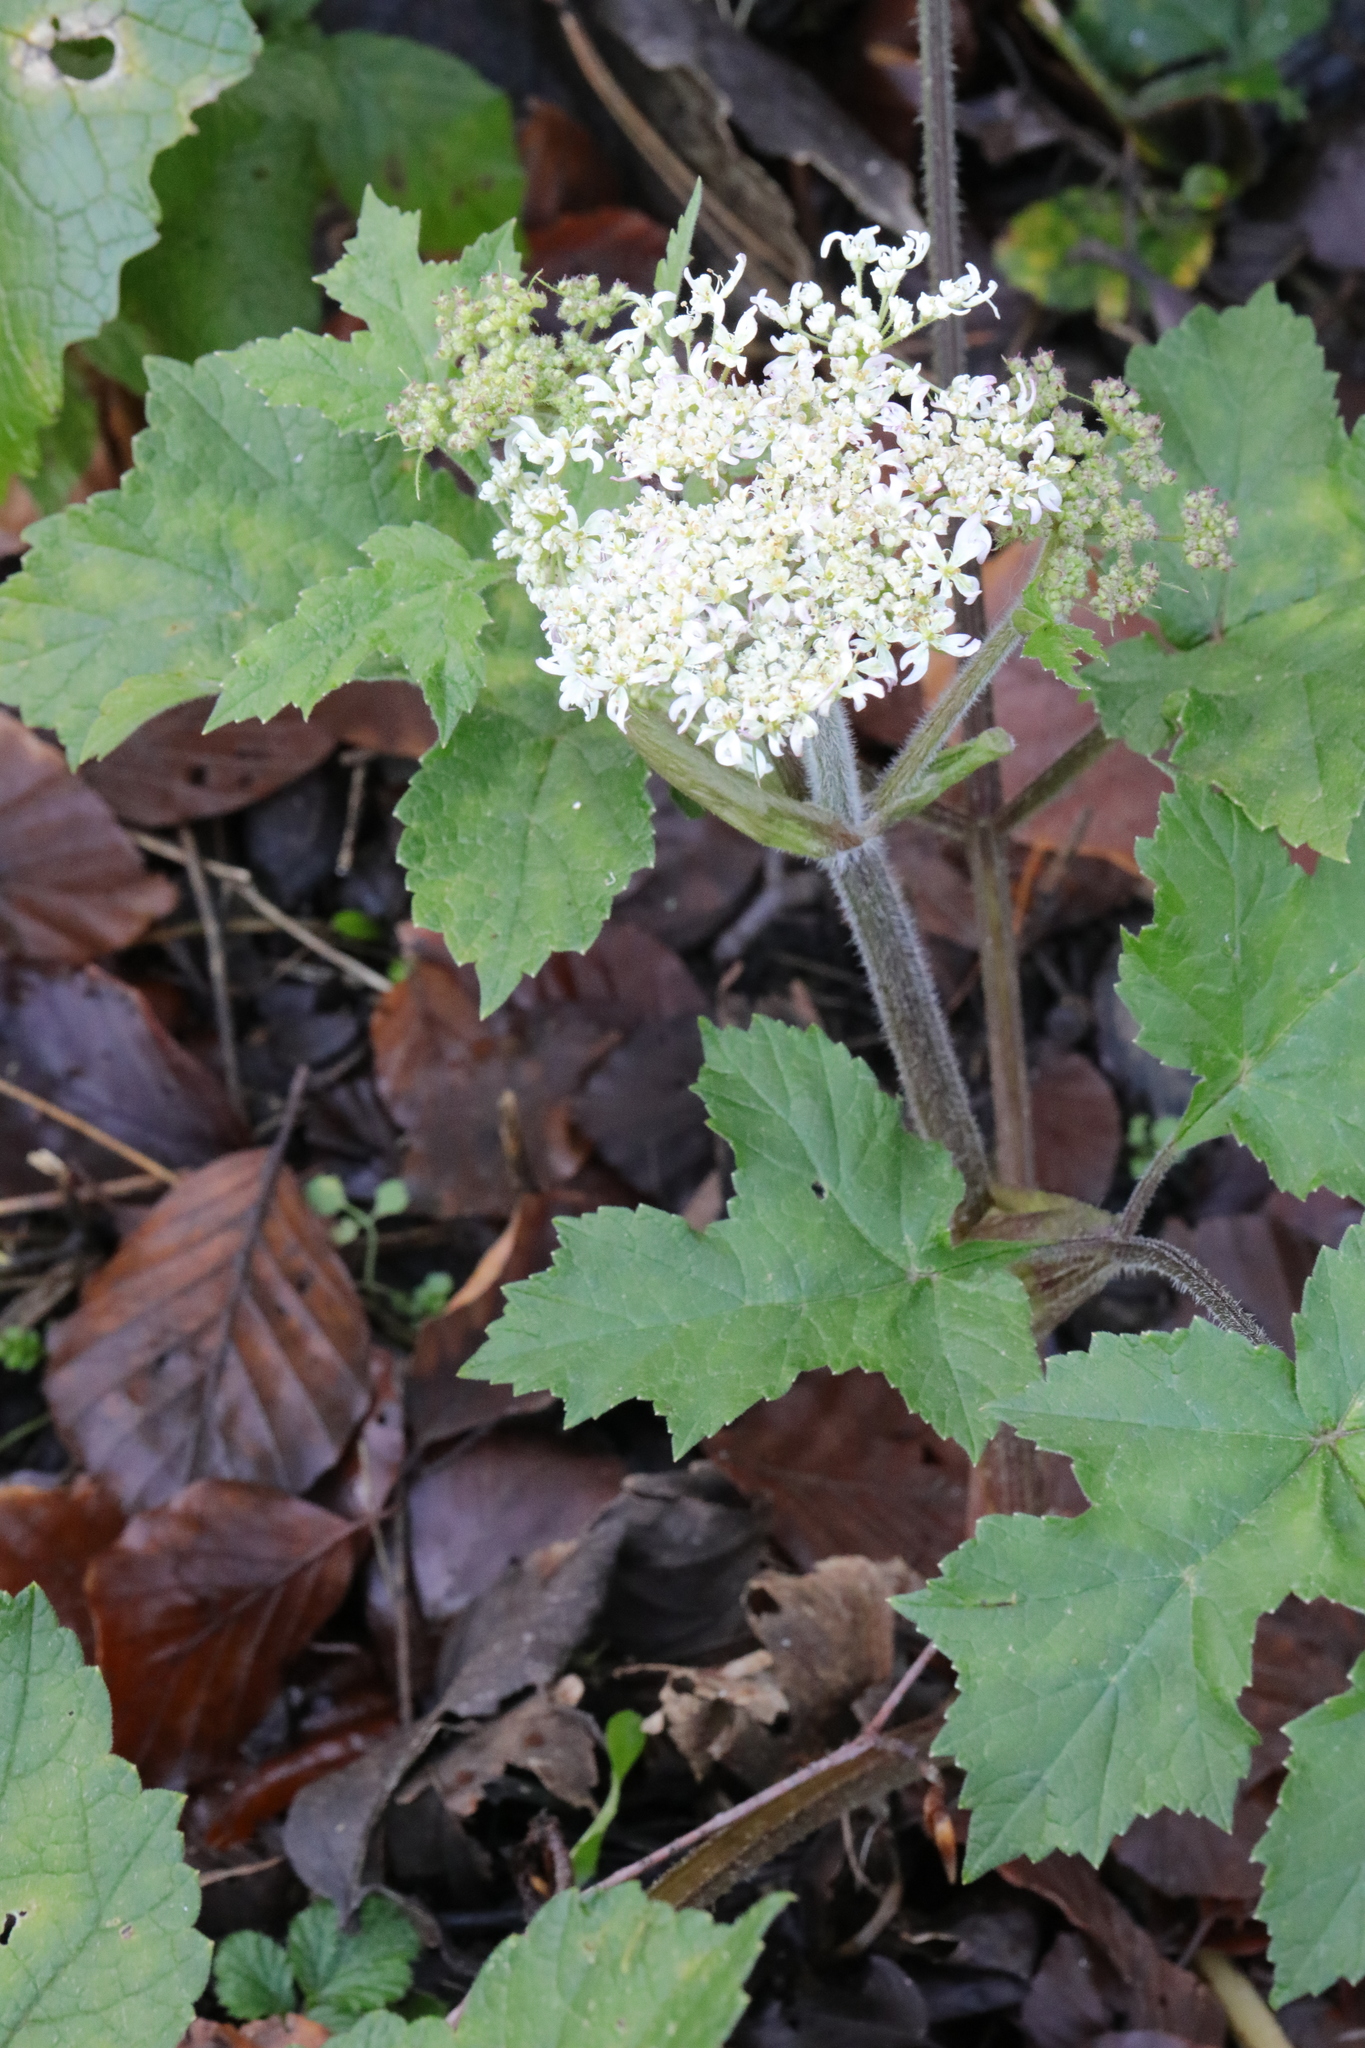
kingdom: Plantae
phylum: Tracheophyta
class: Magnoliopsida
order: Apiales
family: Apiaceae
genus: Heracleum
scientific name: Heracleum sphondylium
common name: Hogweed
